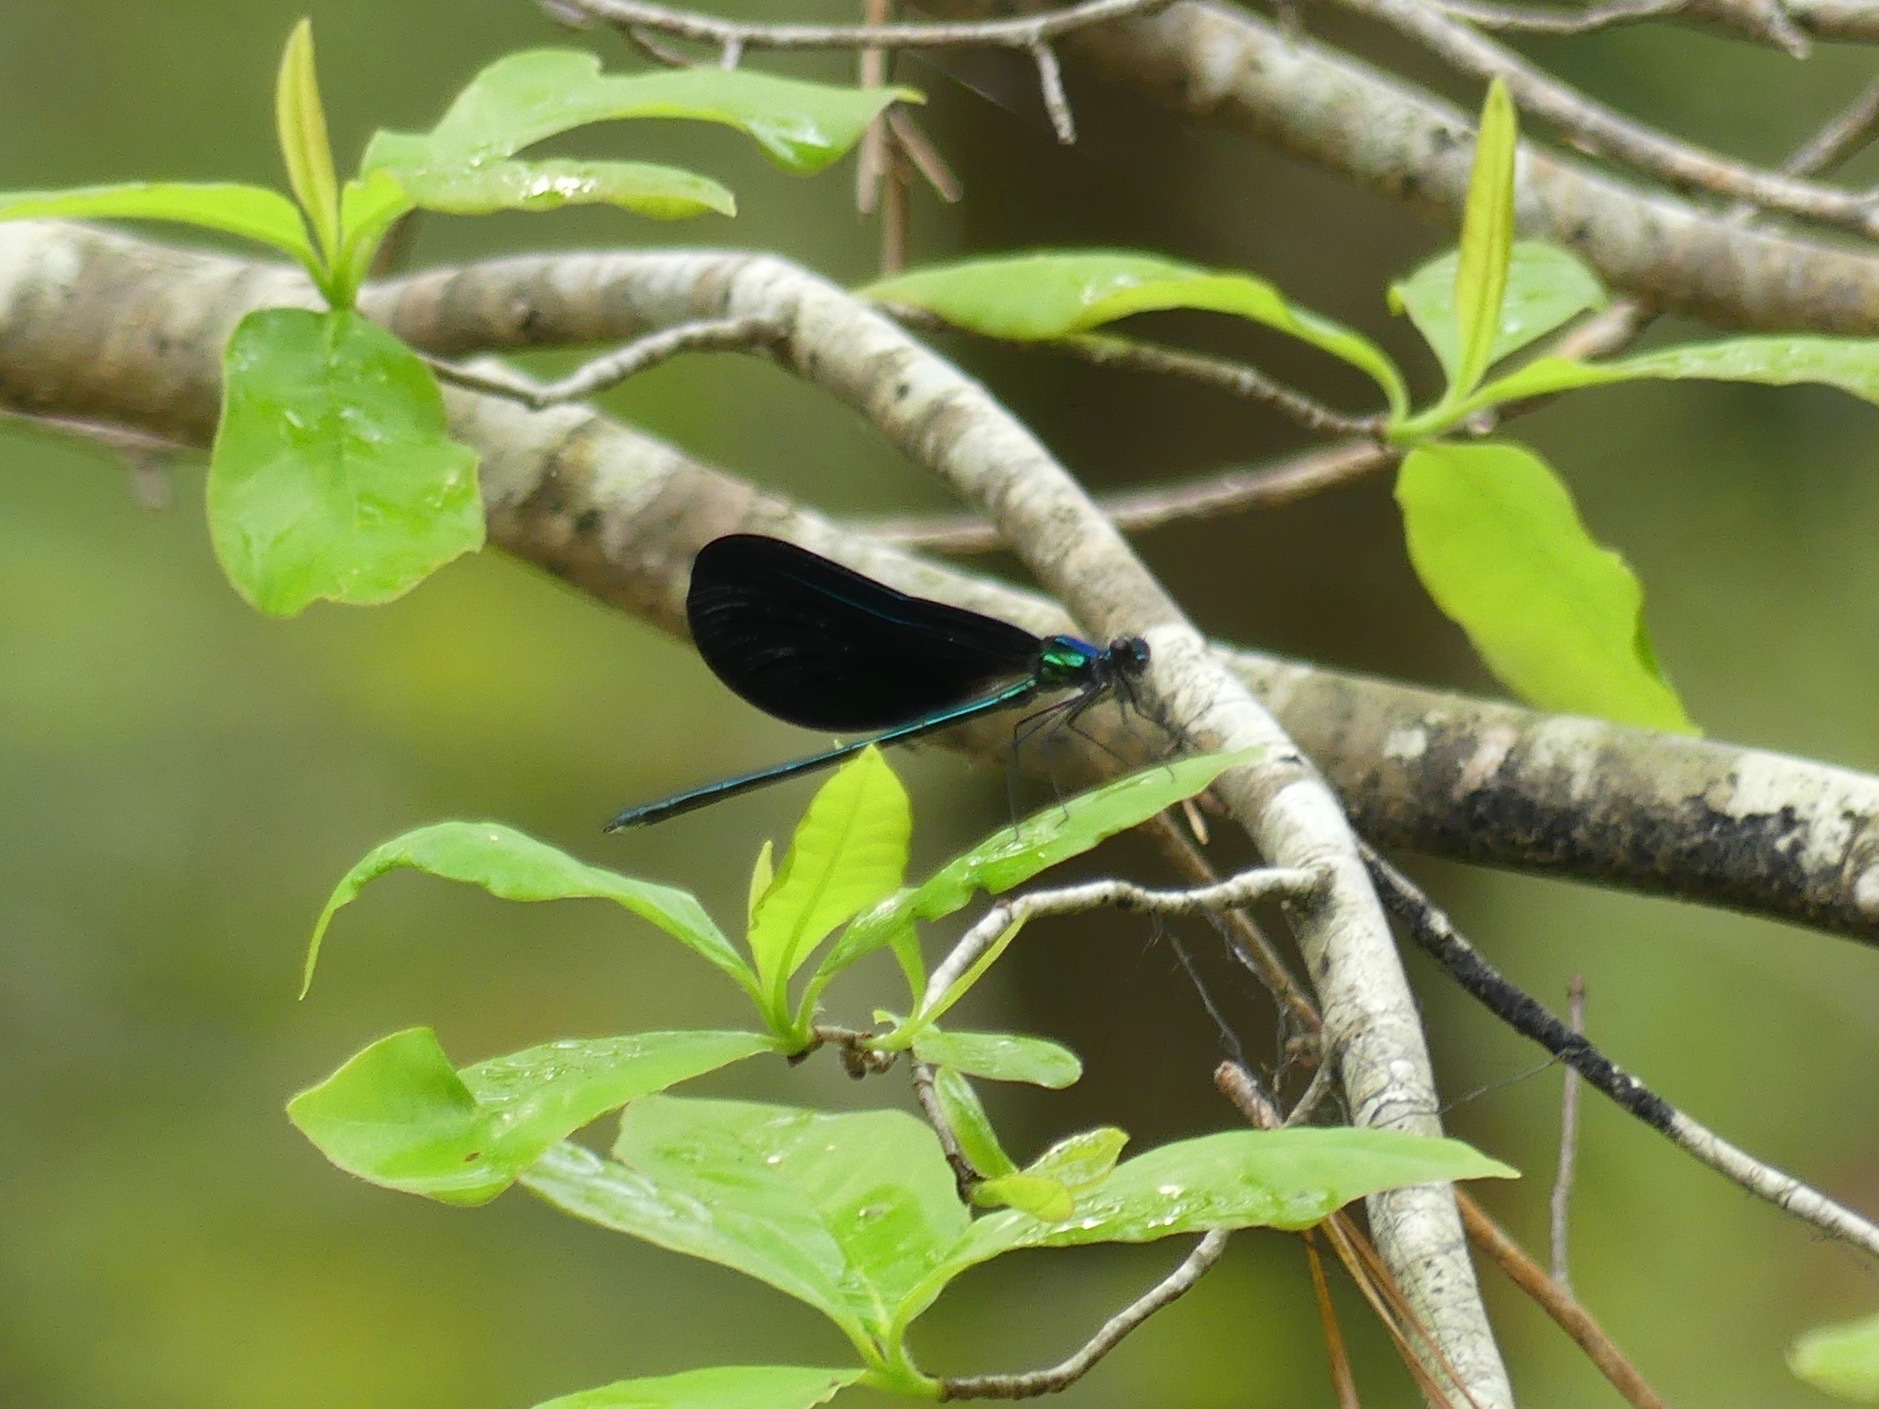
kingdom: Animalia
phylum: Arthropoda
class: Insecta
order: Odonata
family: Calopterygidae
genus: Calopteryx
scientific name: Calopteryx maculata
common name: Ebony jewelwing
